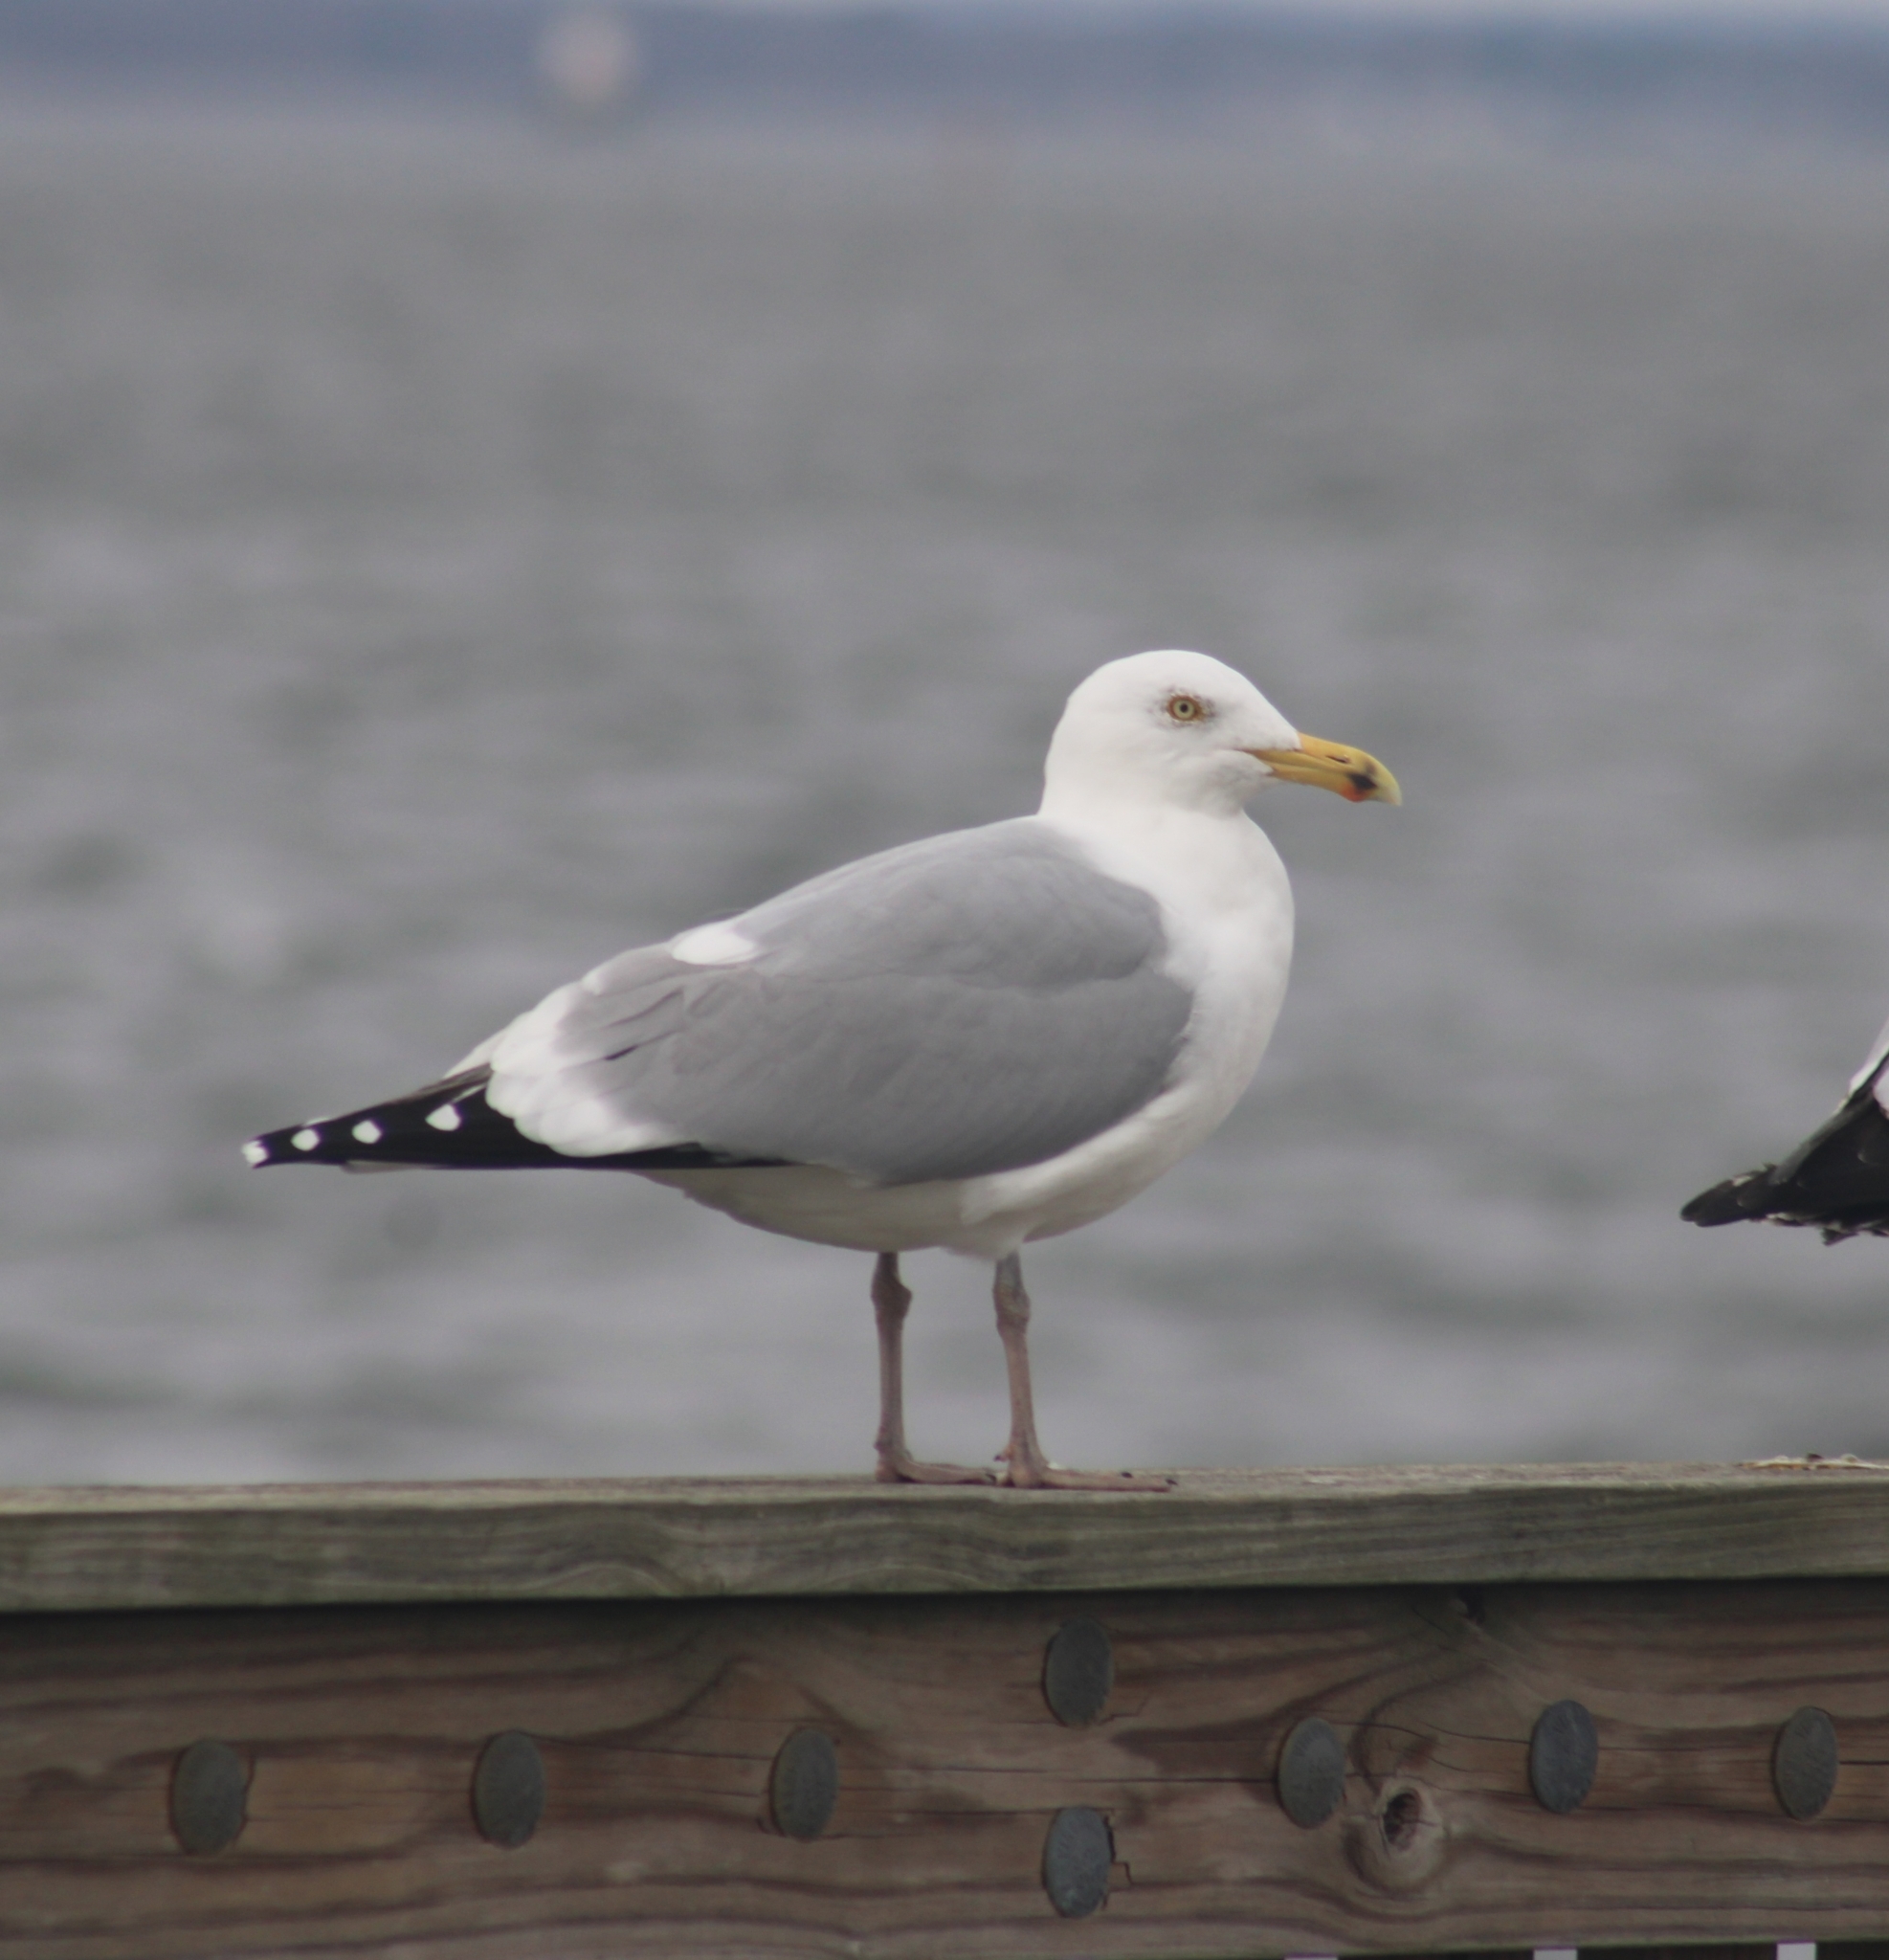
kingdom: Animalia
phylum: Chordata
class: Aves
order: Charadriiformes
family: Laridae
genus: Larus
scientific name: Larus argentatus
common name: Herring gull
